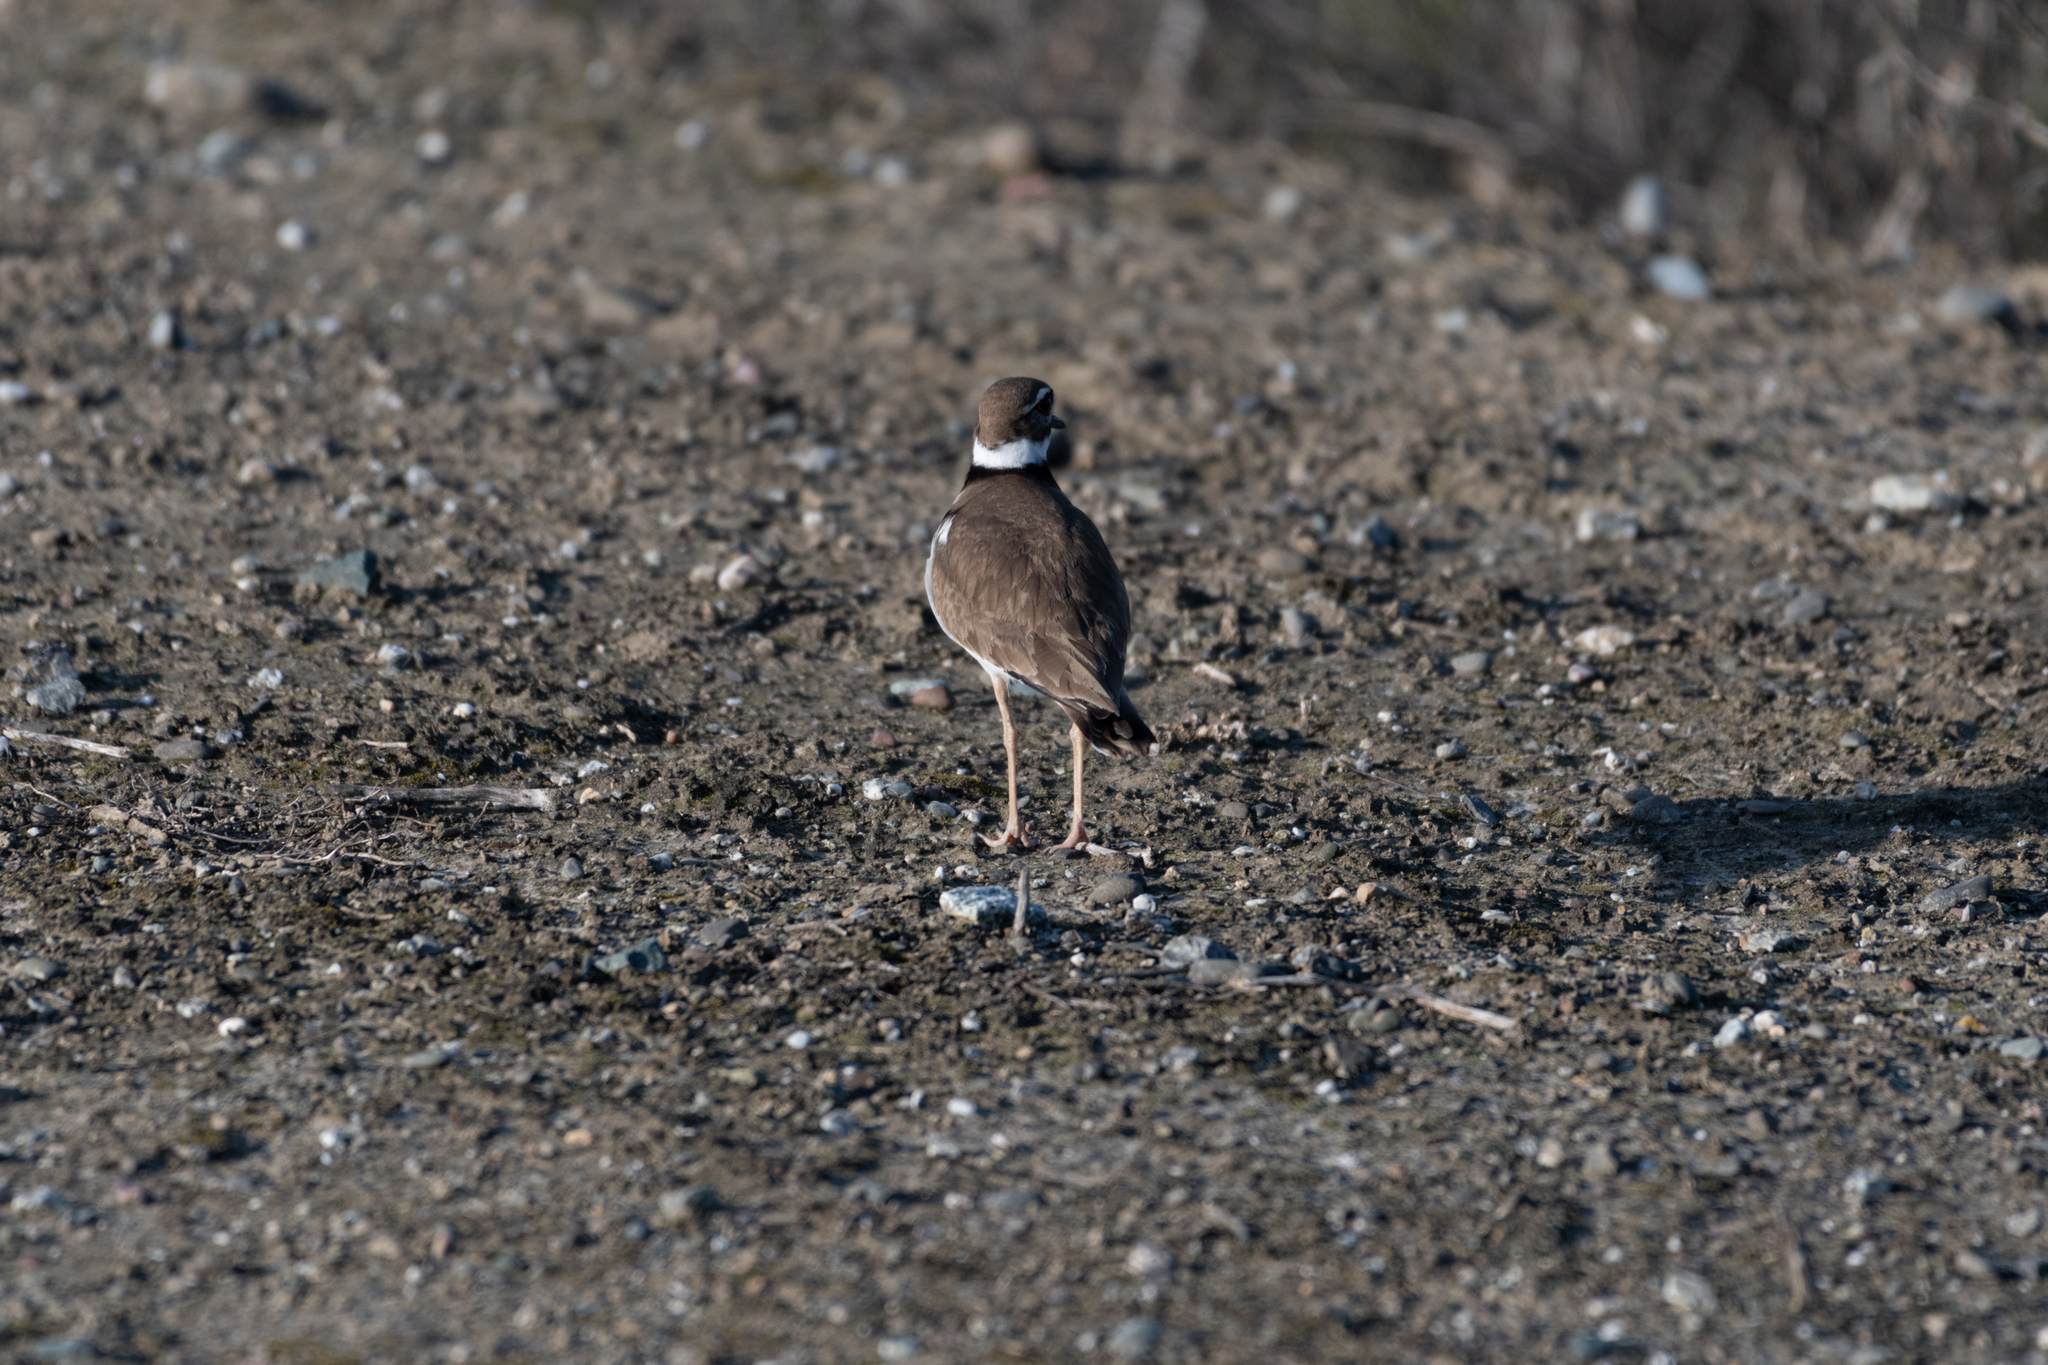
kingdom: Animalia
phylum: Chordata
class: Aves
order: Charadriiformes
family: Charadriidae
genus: Charadrius
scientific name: Charadrius vociferus
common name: Killdeer
